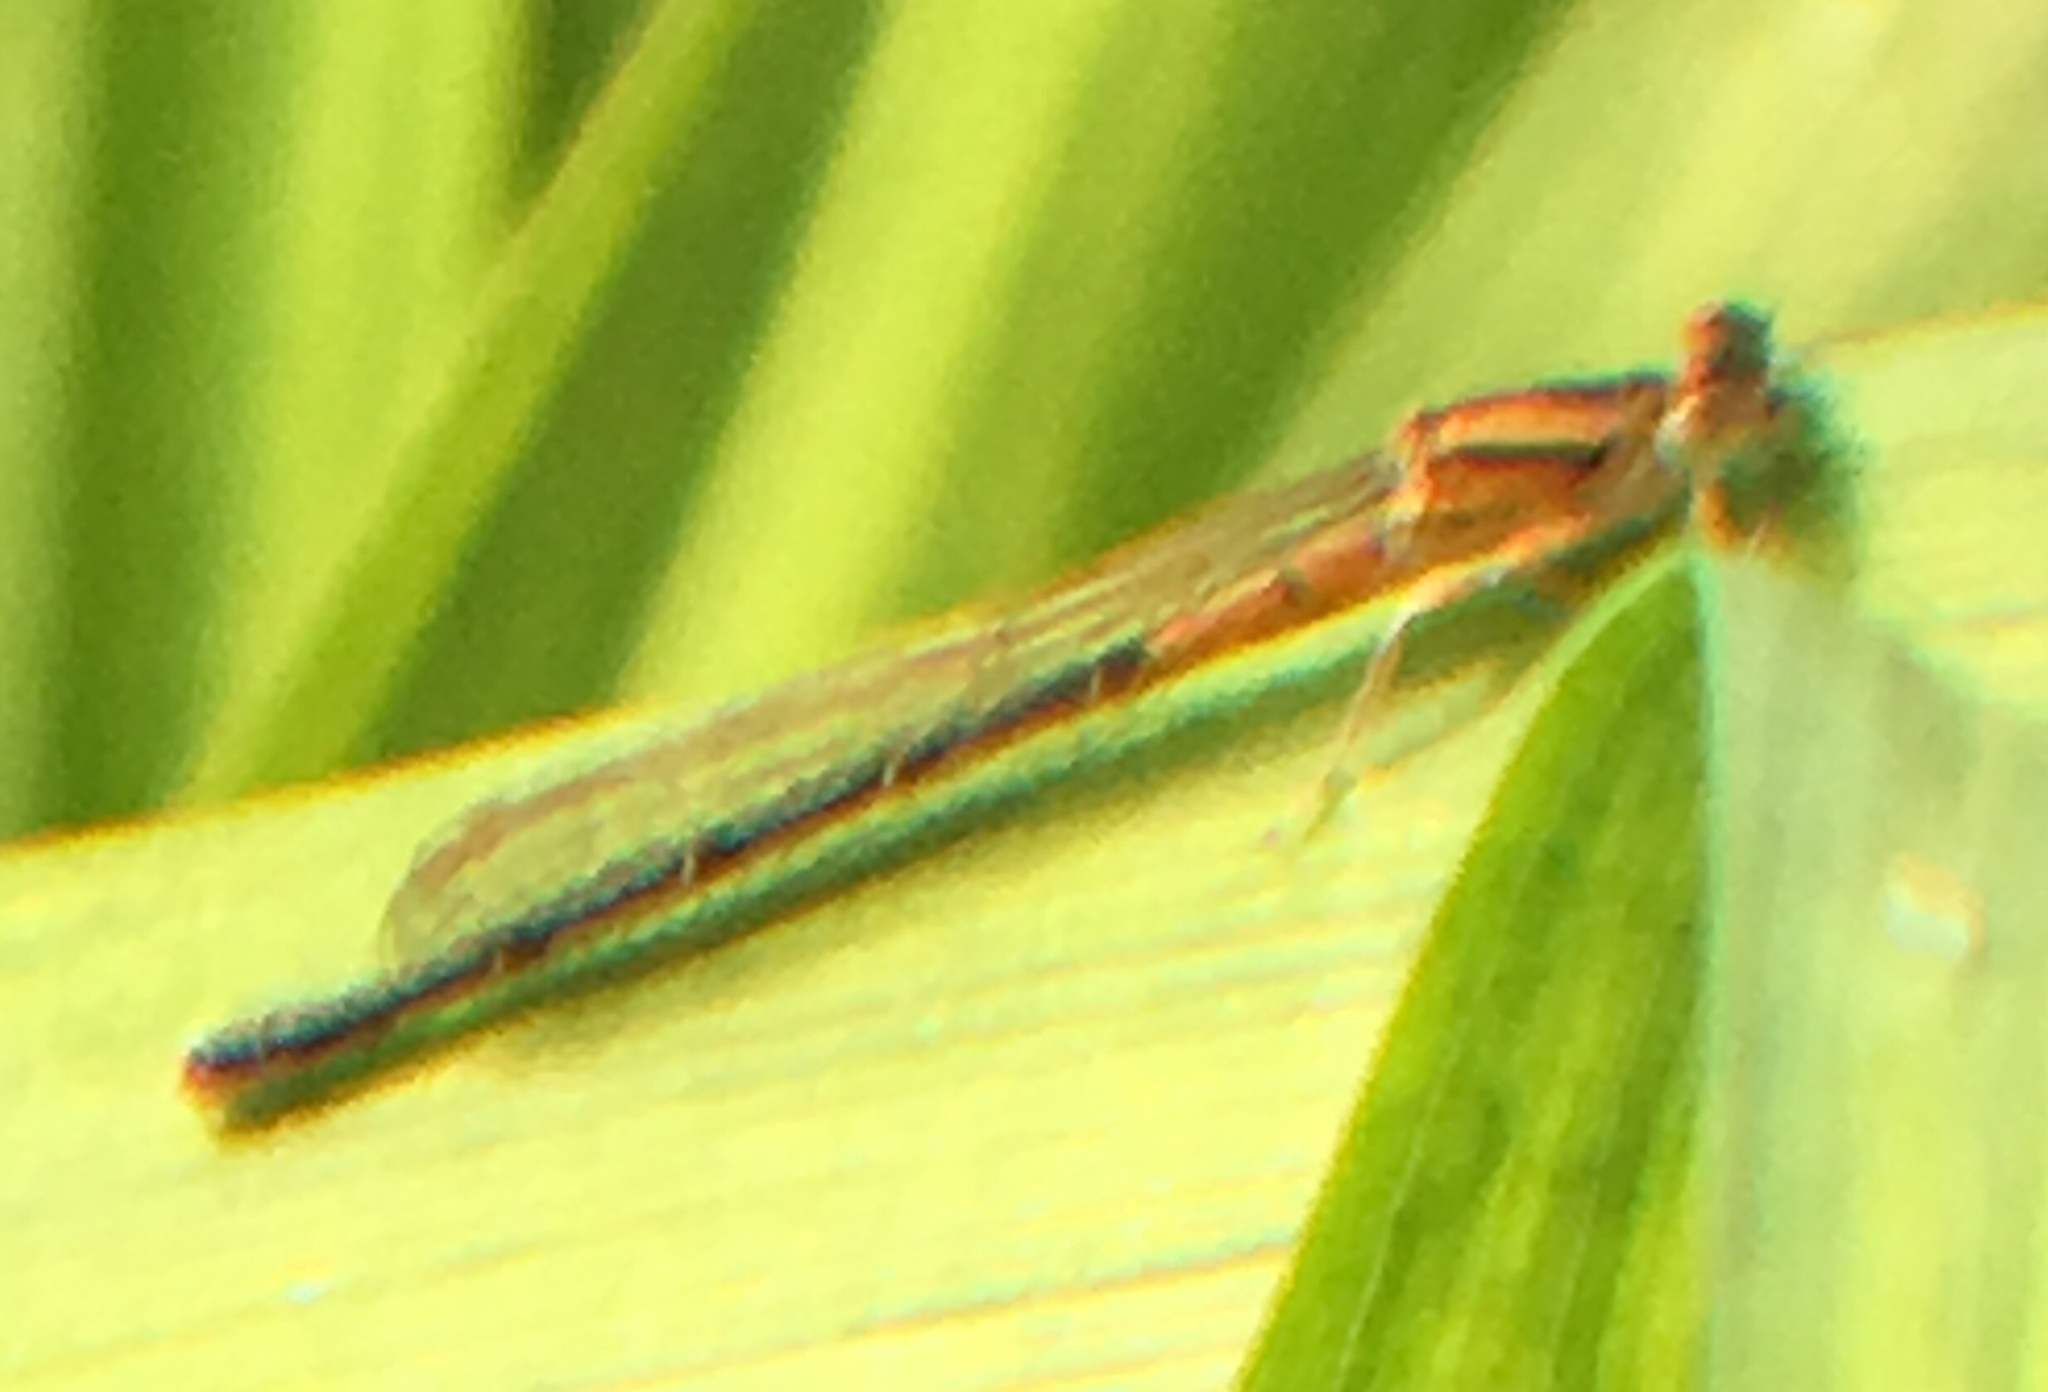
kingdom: Animalia
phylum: Arthropoda
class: Insecta
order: Odonata
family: Coenagrionidae
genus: Ischnura
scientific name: Ischnura verticalis
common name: Eastern forktail
